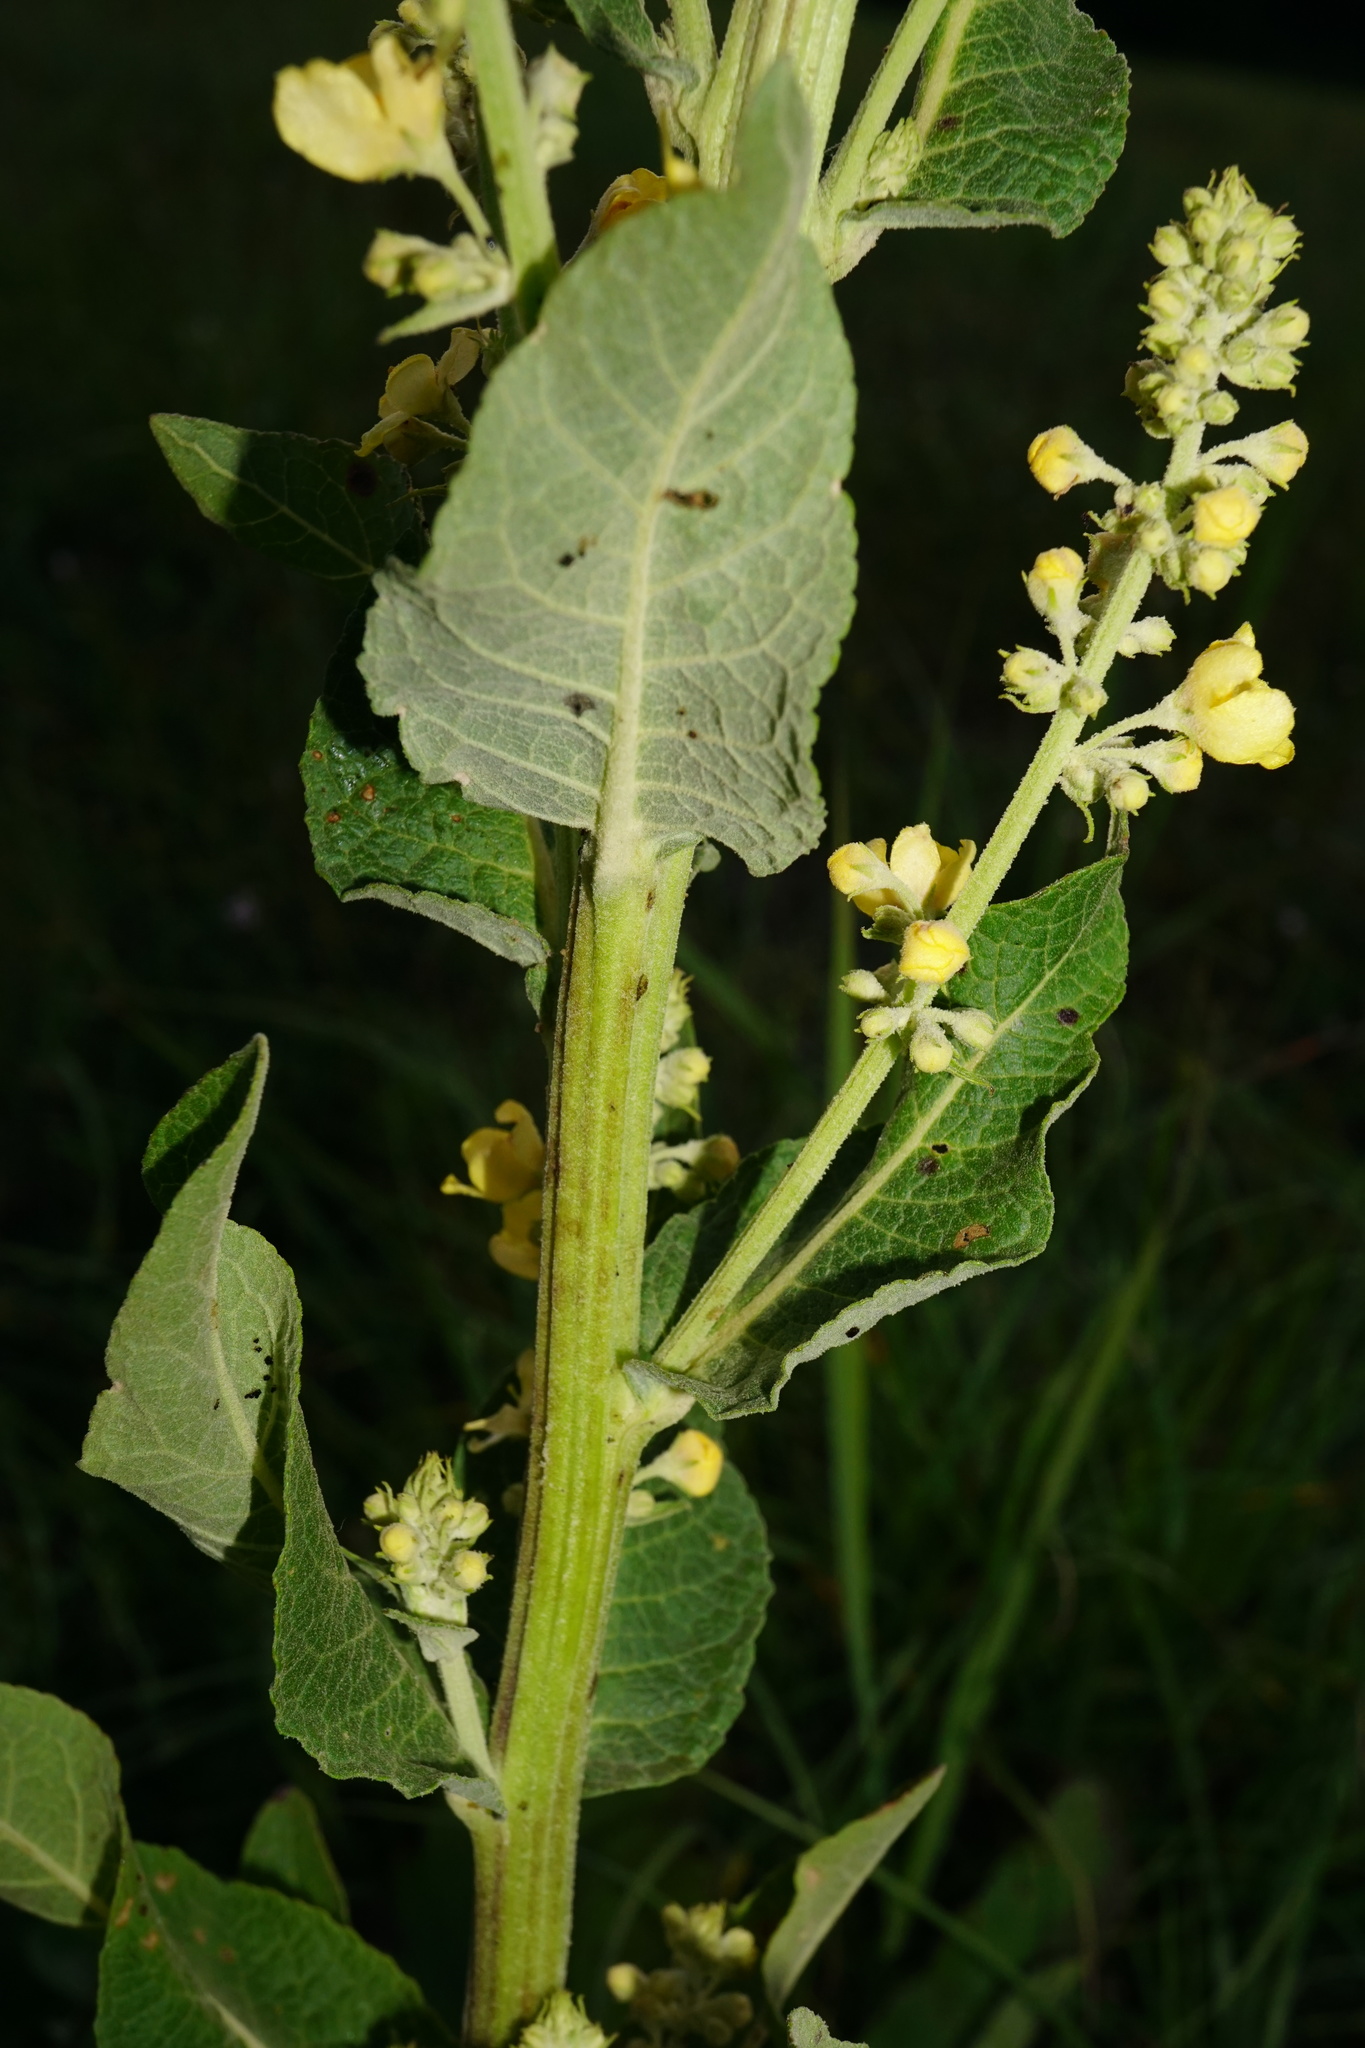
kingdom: Plantae
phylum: Tracheophyta
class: Magnoliopsida
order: Lamiales
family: Scrophulariaceae
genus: Verbascum
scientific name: Verbascum lychnitis
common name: White mullein
